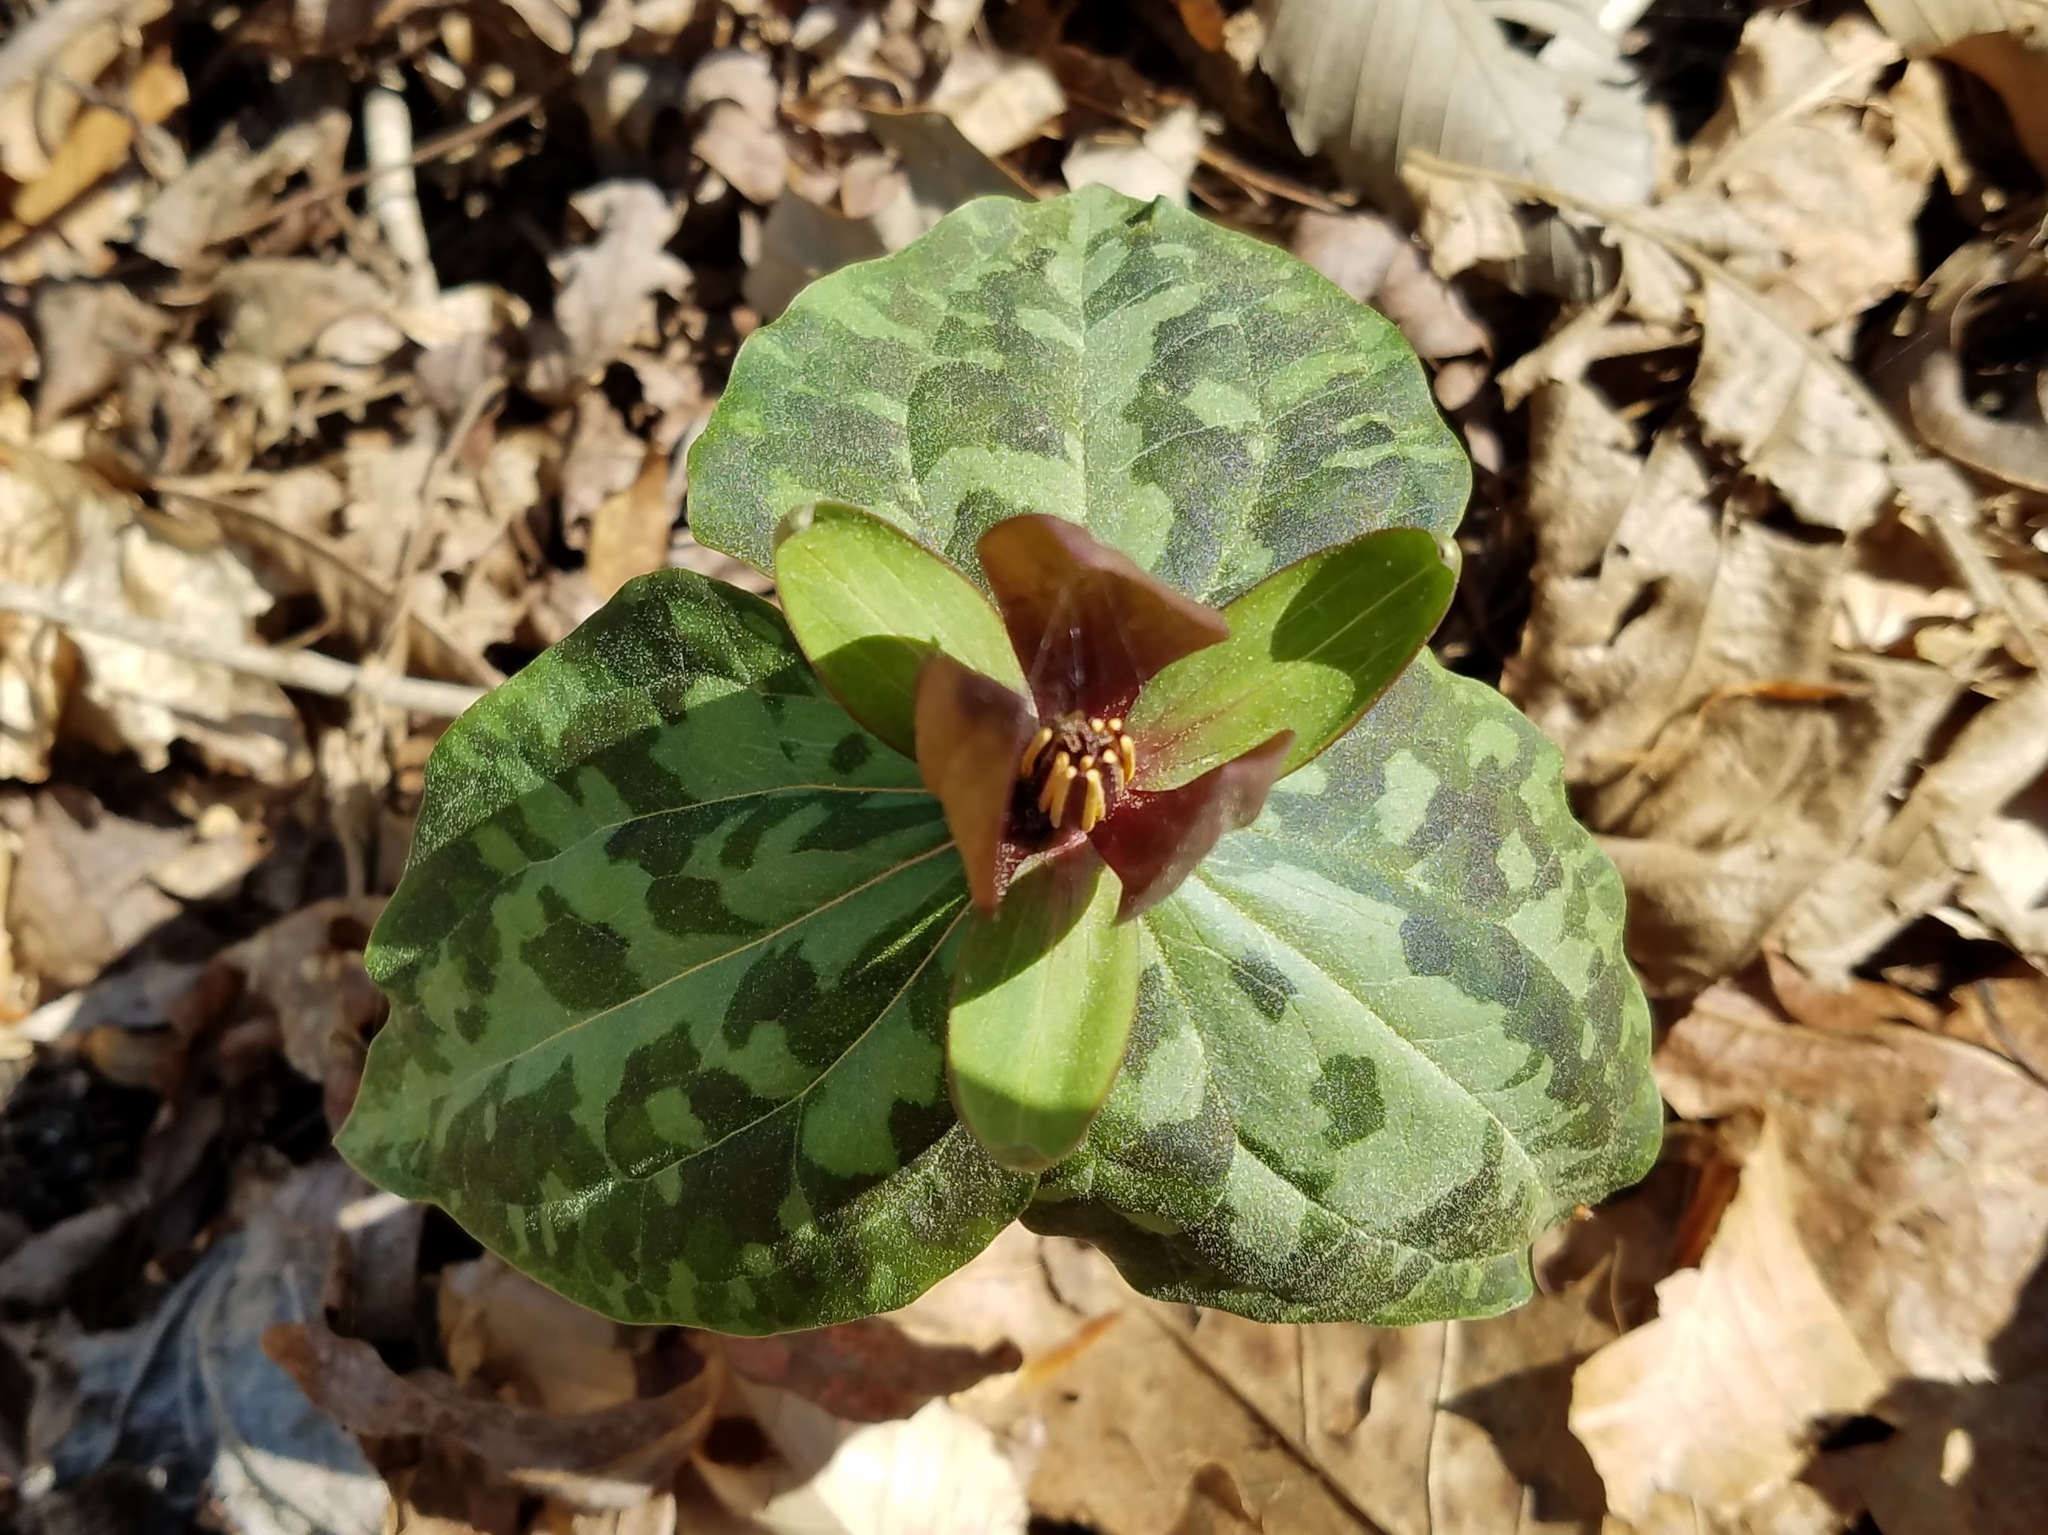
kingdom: Plantae
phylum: Tracheophyta
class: Liliopsida
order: Liliales
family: Melanthiaceae
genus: Trillium
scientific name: Trillium cuneatum
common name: Cuneate trillium
